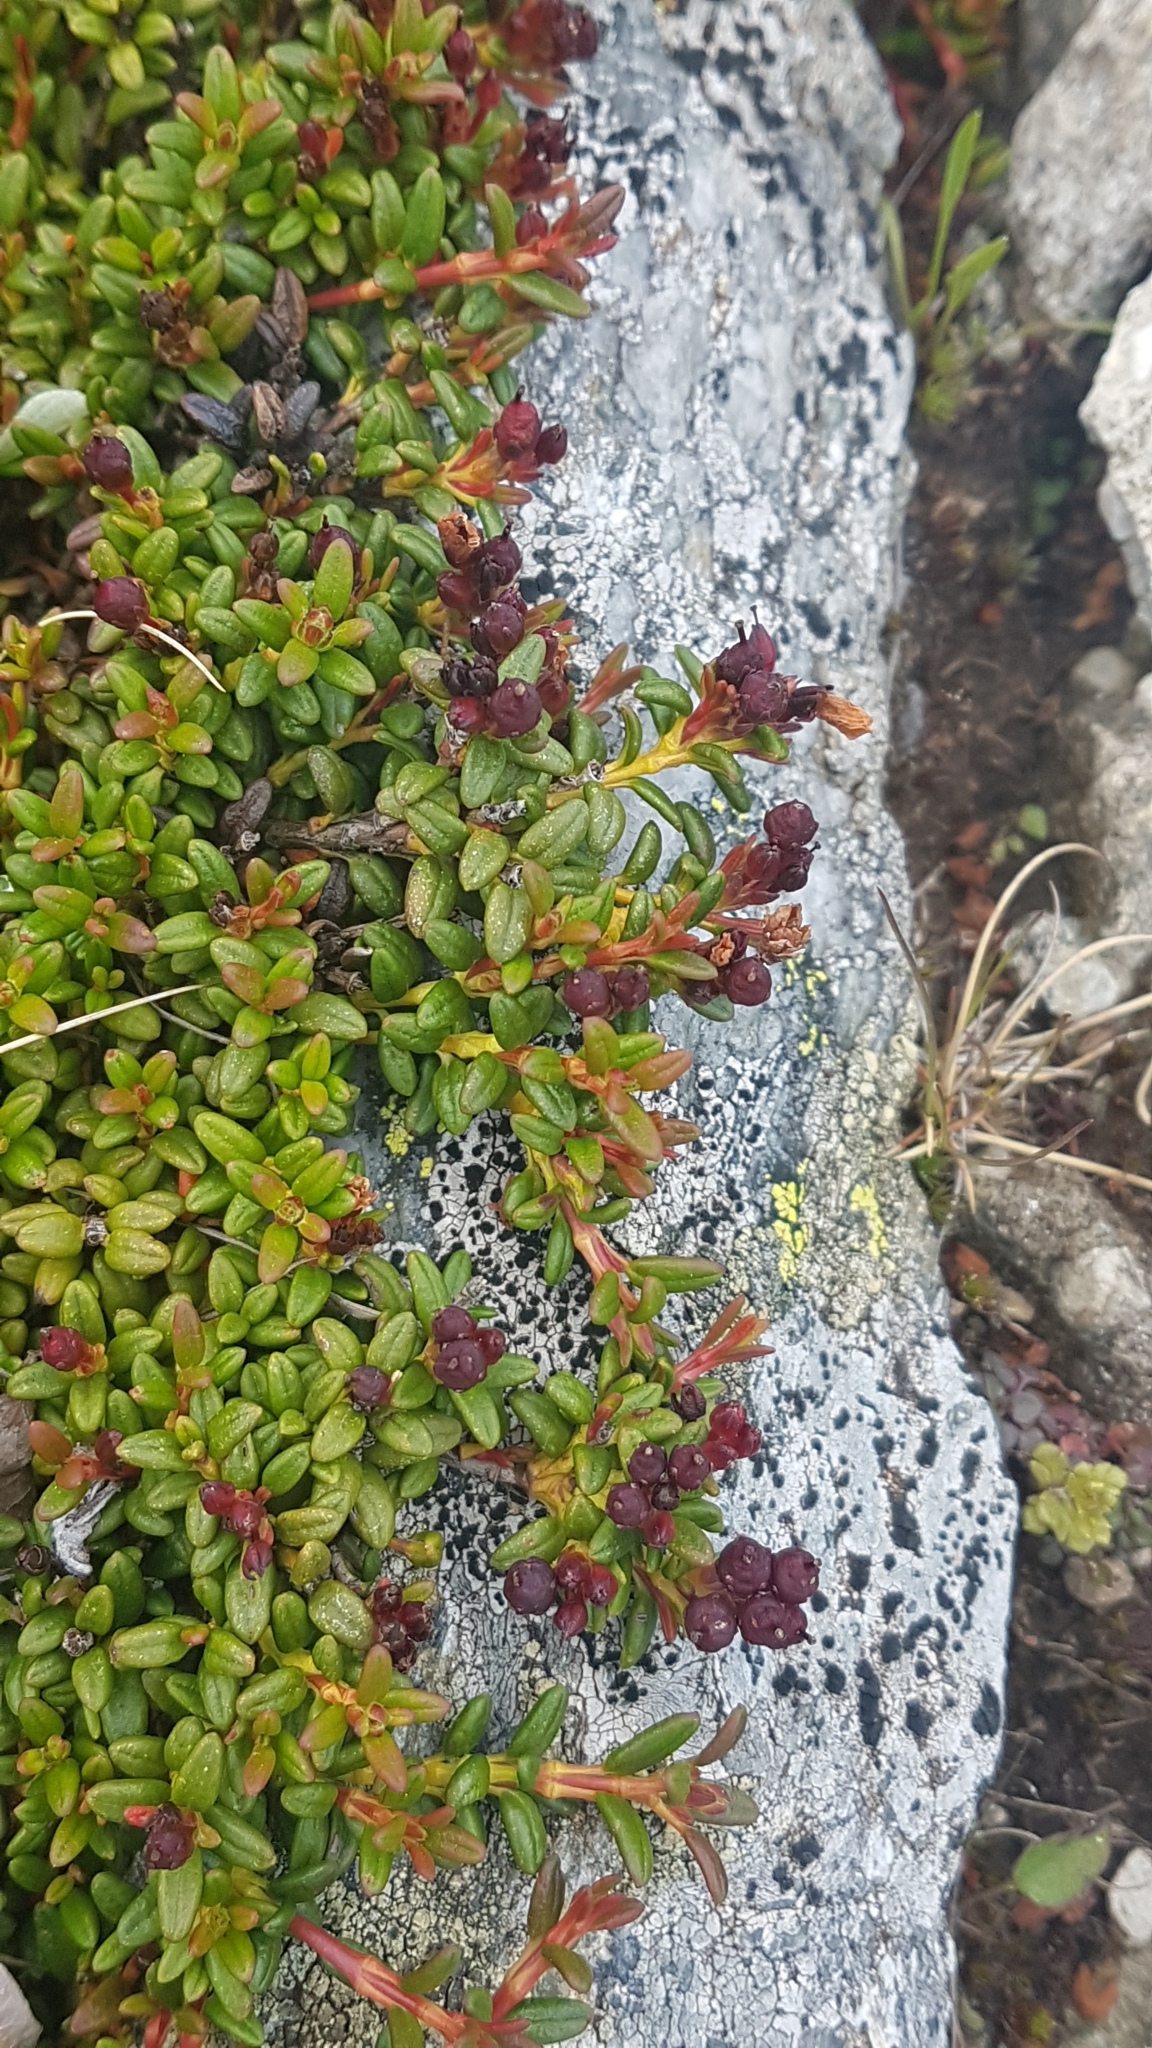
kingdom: Plantae
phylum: Tracheophyta
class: Magnoliopsida
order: Ericales
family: Ericaceae
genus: Kalmia
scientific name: Kalmia procumbens
